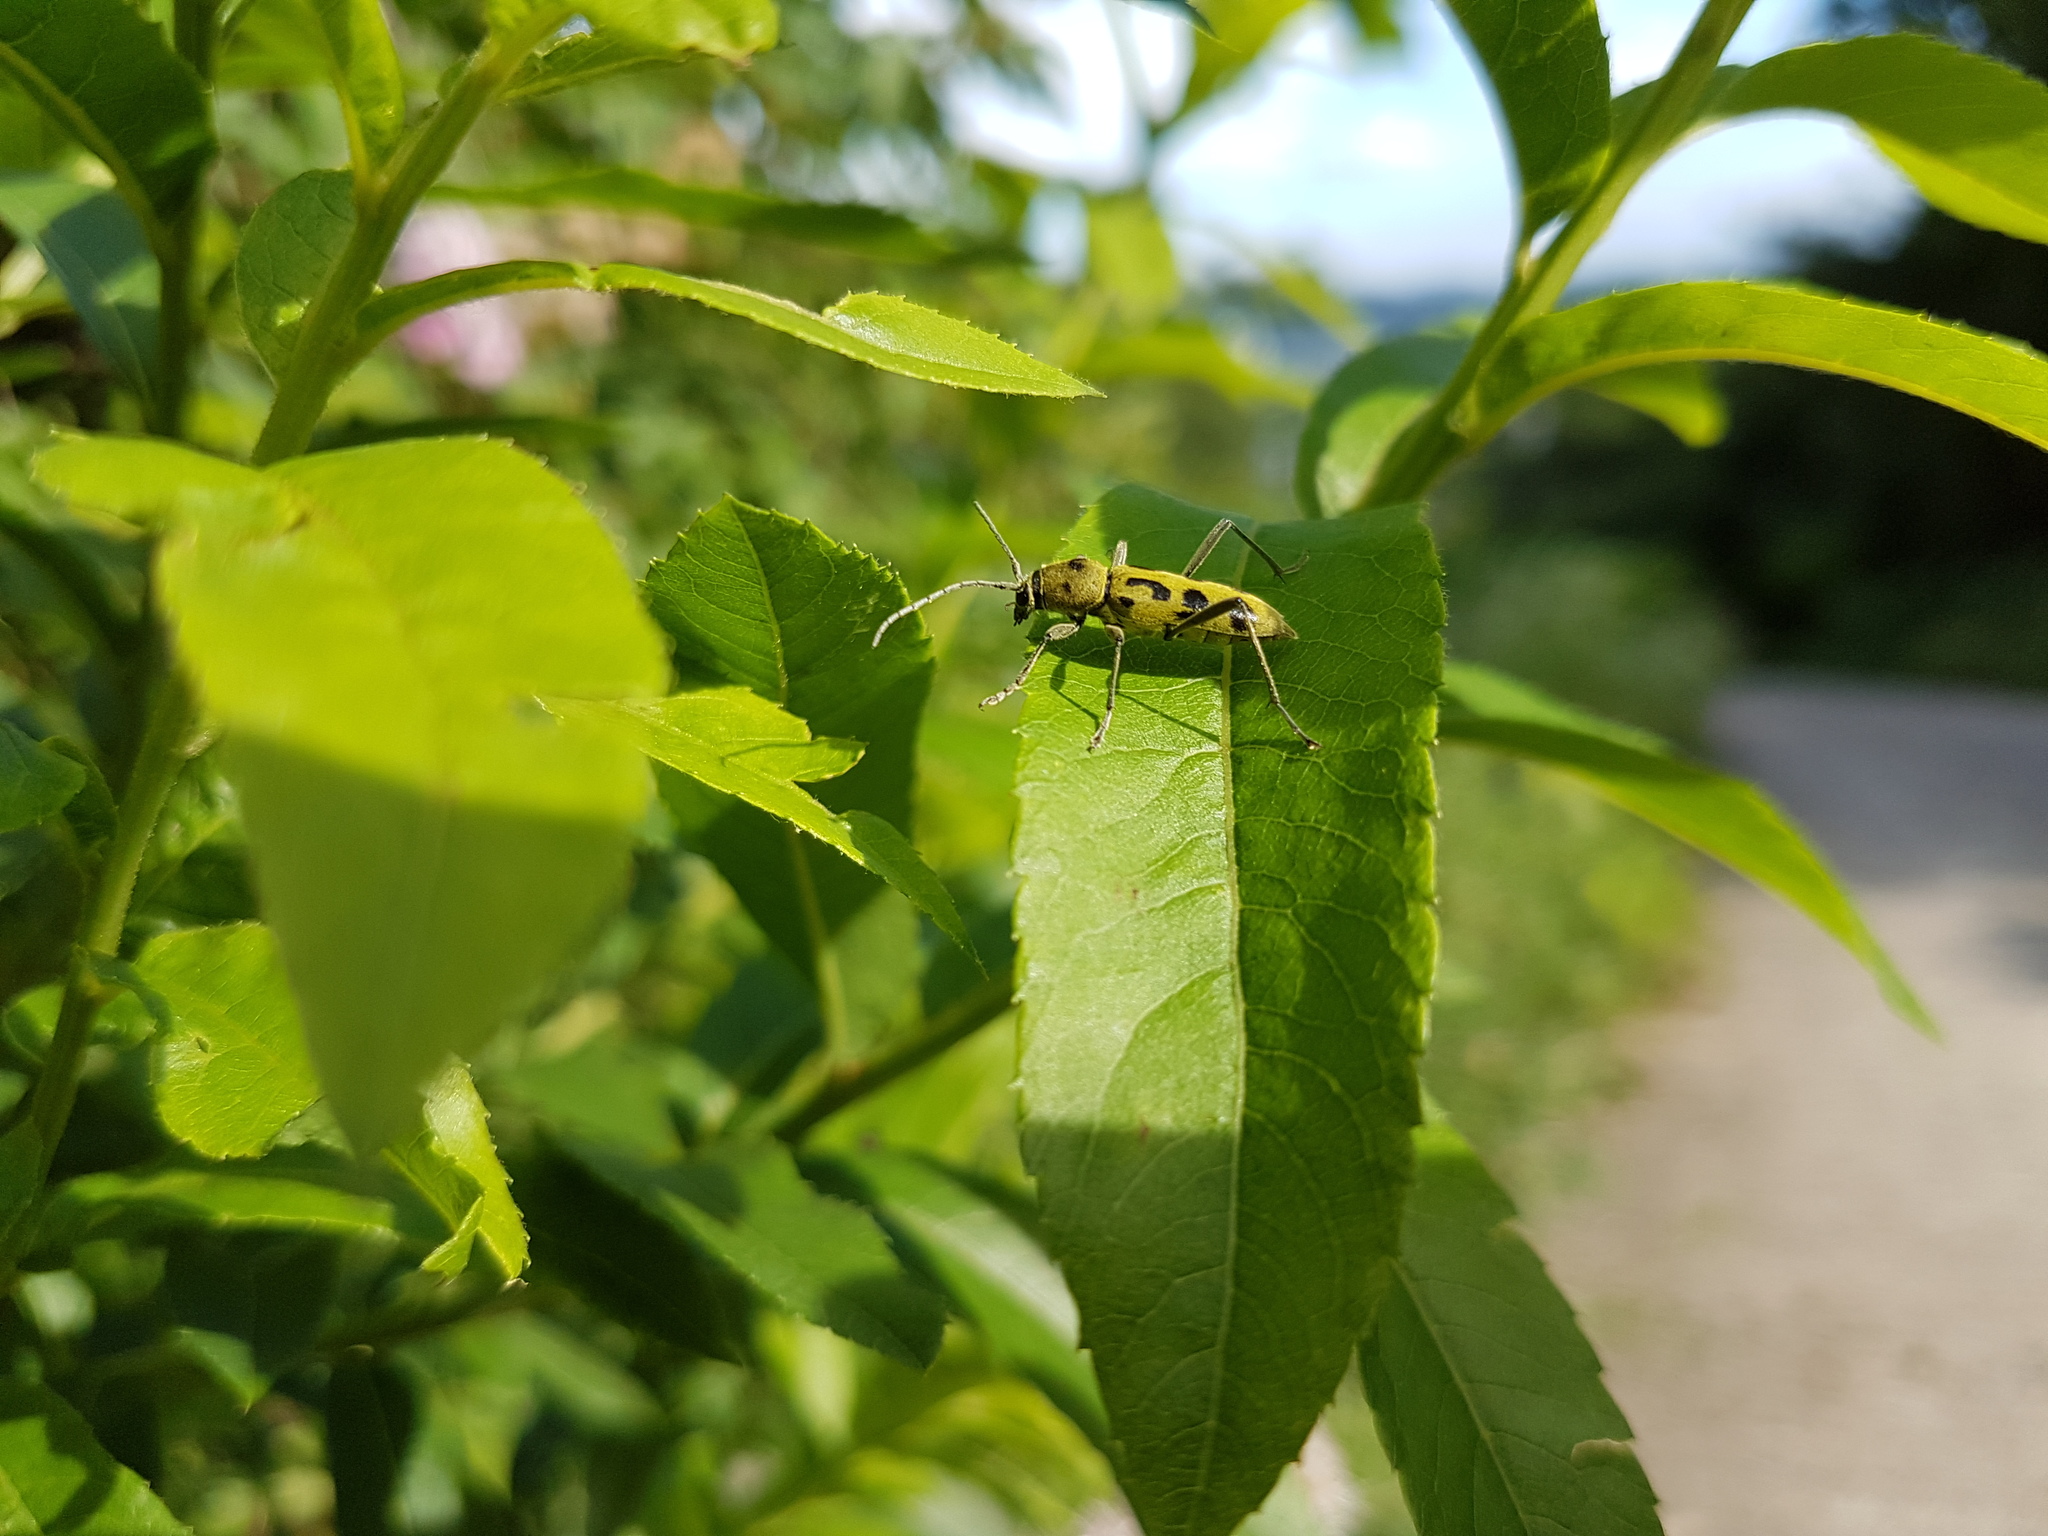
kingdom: Animalia
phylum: Arthropoda
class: Insecta
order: Coleoptera
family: Cerambycidae
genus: Chlorophorus
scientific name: Chlorophorus simillimus
